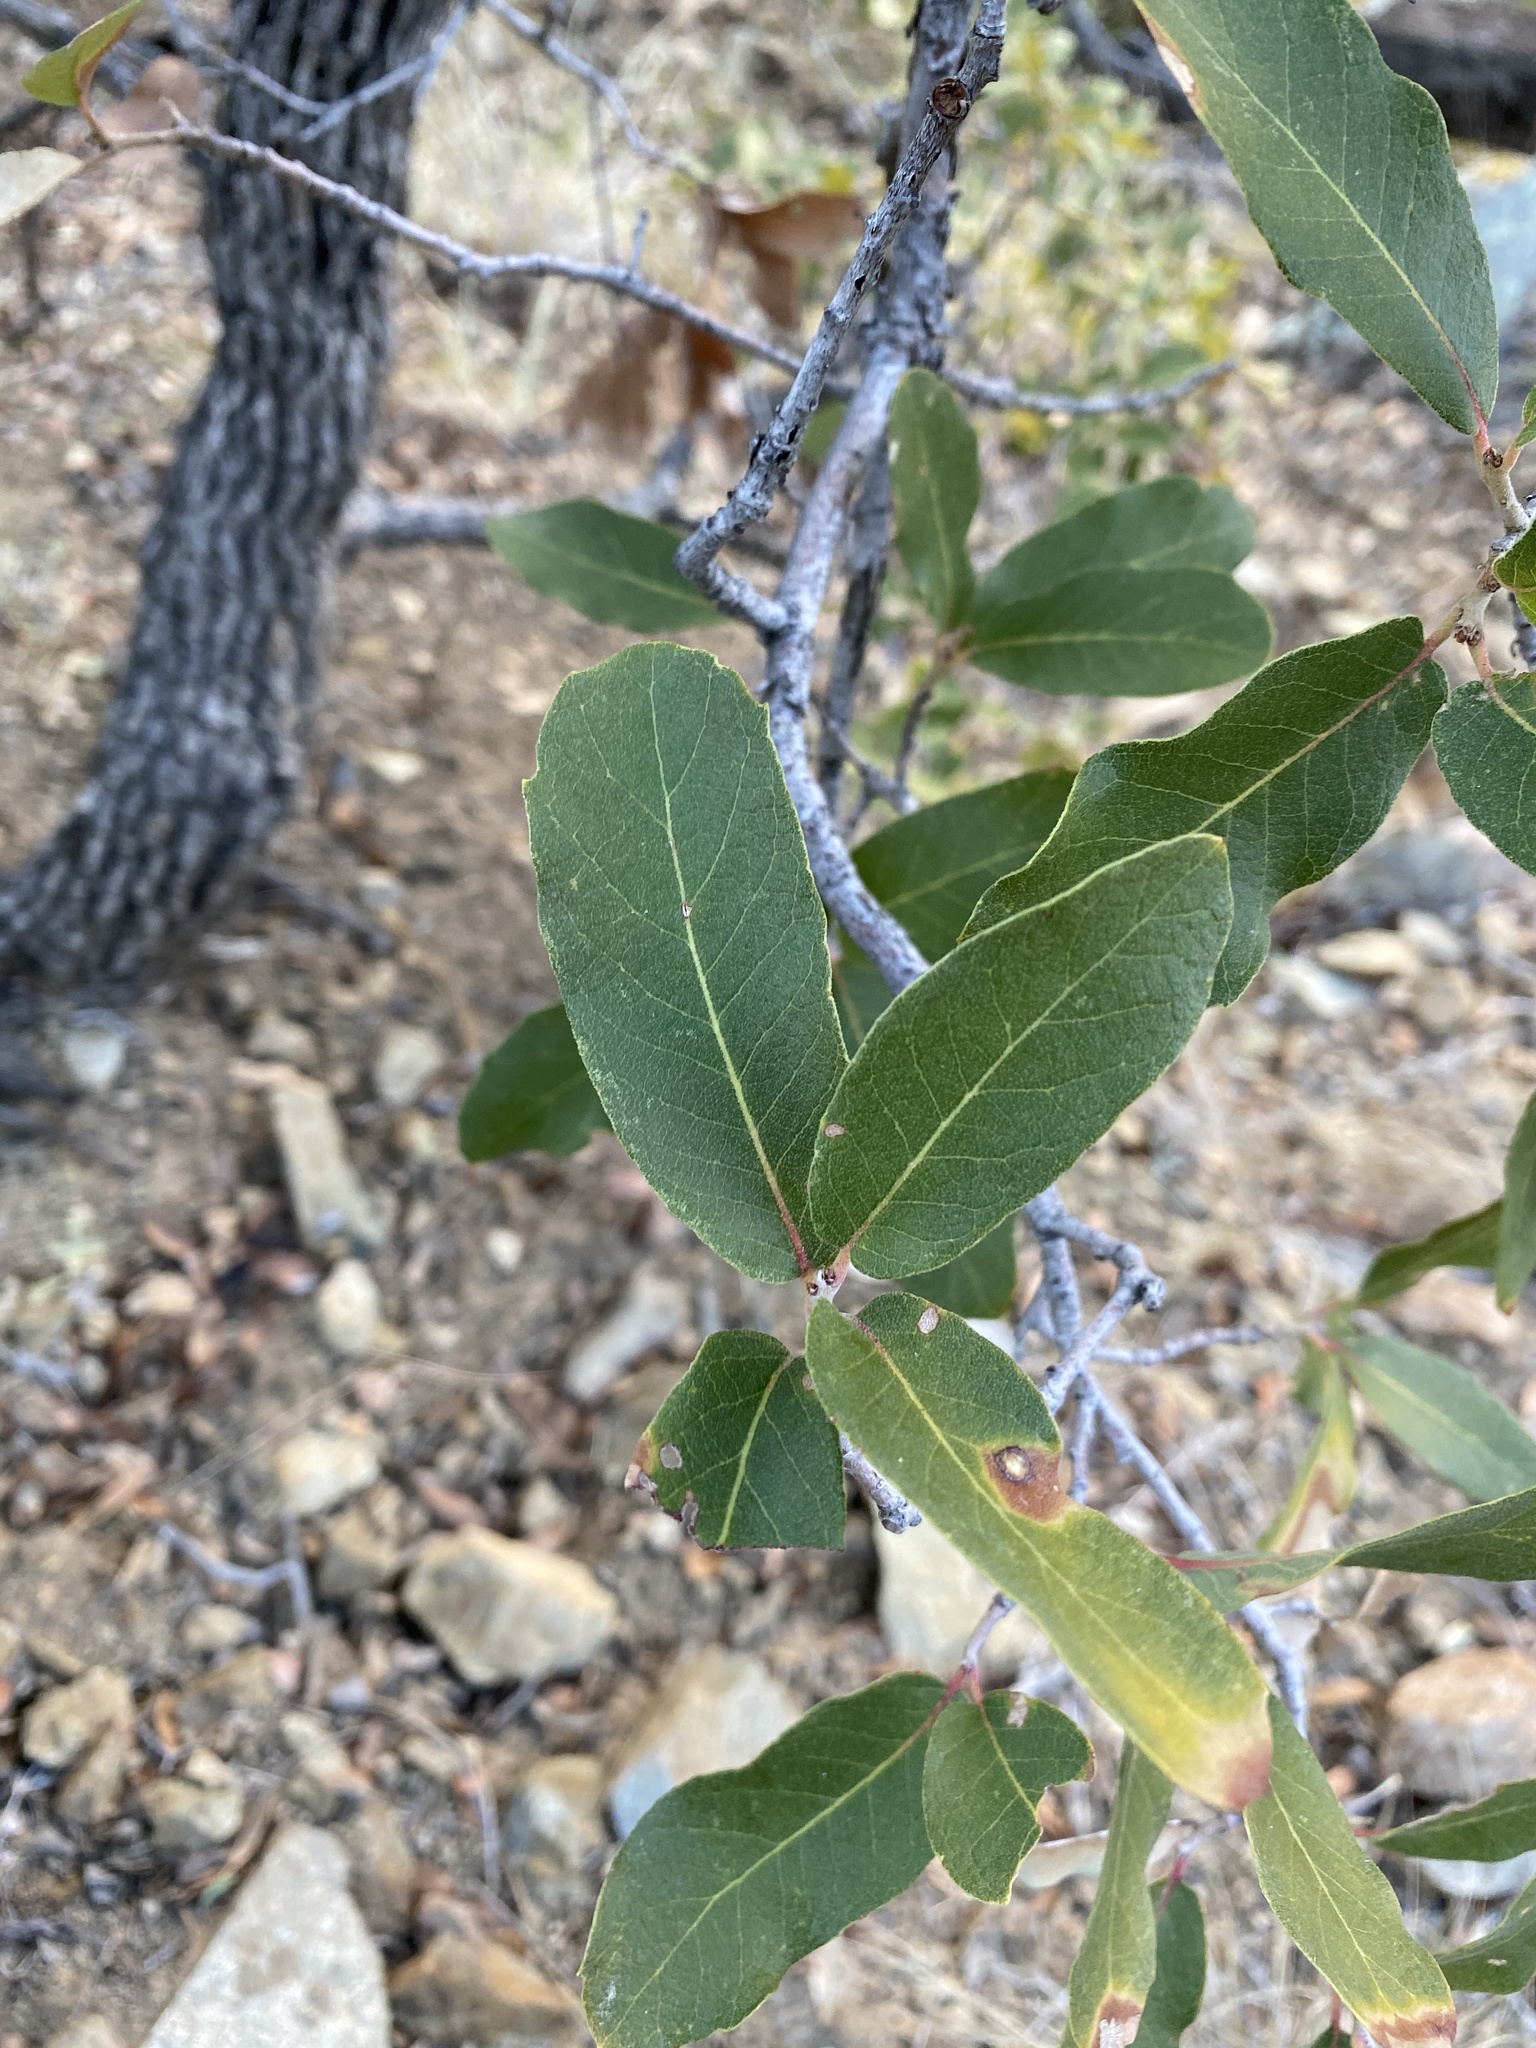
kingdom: Plantae
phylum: Tracheophyta
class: Magnoliopsida
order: Fagales
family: Fagaceae
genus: Quercus
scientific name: Quercus arizonica
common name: Arizona white oak
